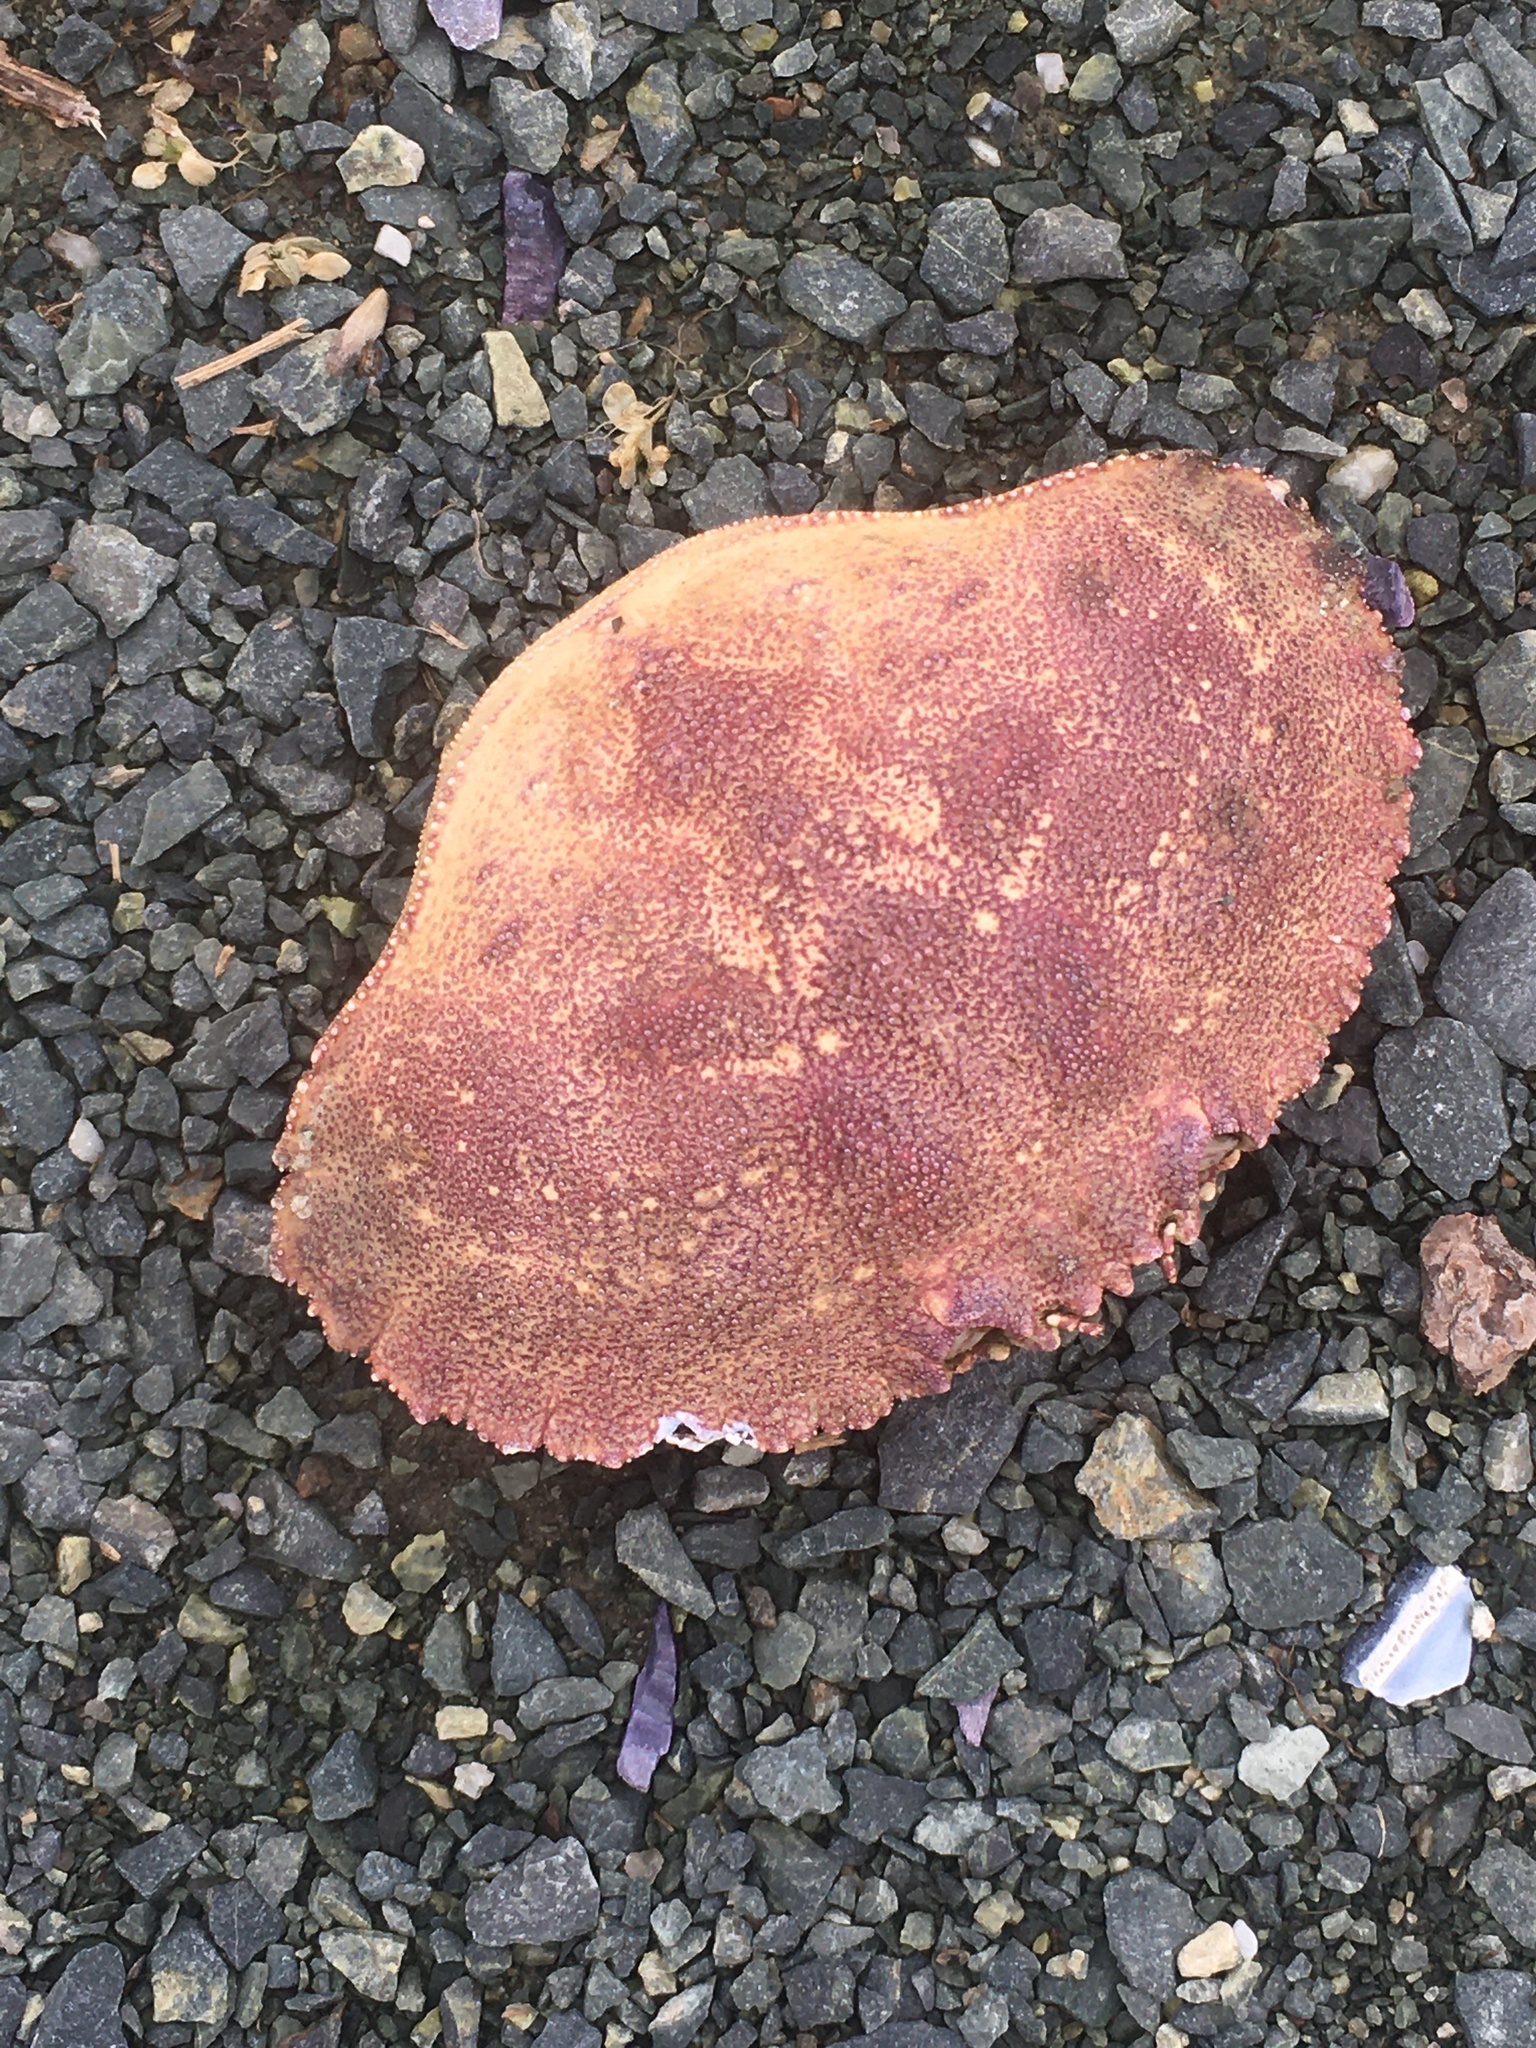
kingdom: Animalia
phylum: Arthropoda
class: Malacostraca
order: Decapoda
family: Cancridae
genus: Cancer
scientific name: Cancer borealis
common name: Jonah crab
